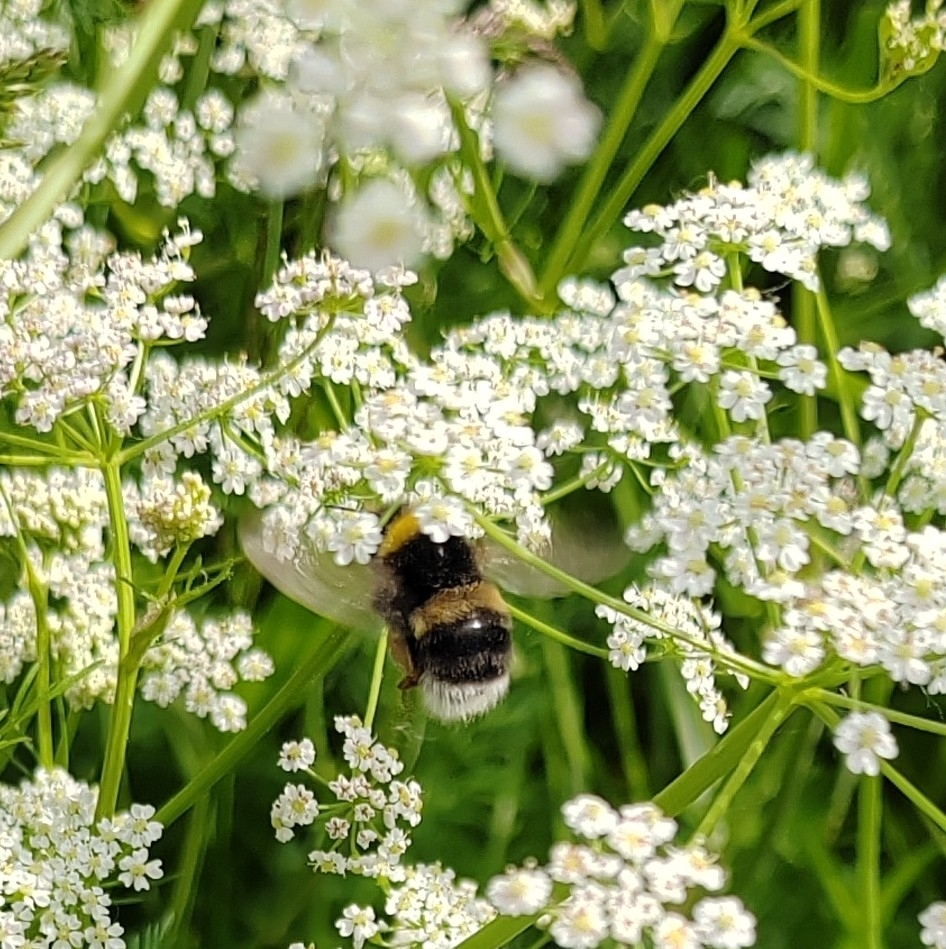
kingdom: Animalia
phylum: Arthropoda
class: Insecta
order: Hymenoptera
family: Apidae
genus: Bombus
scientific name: Bombus
